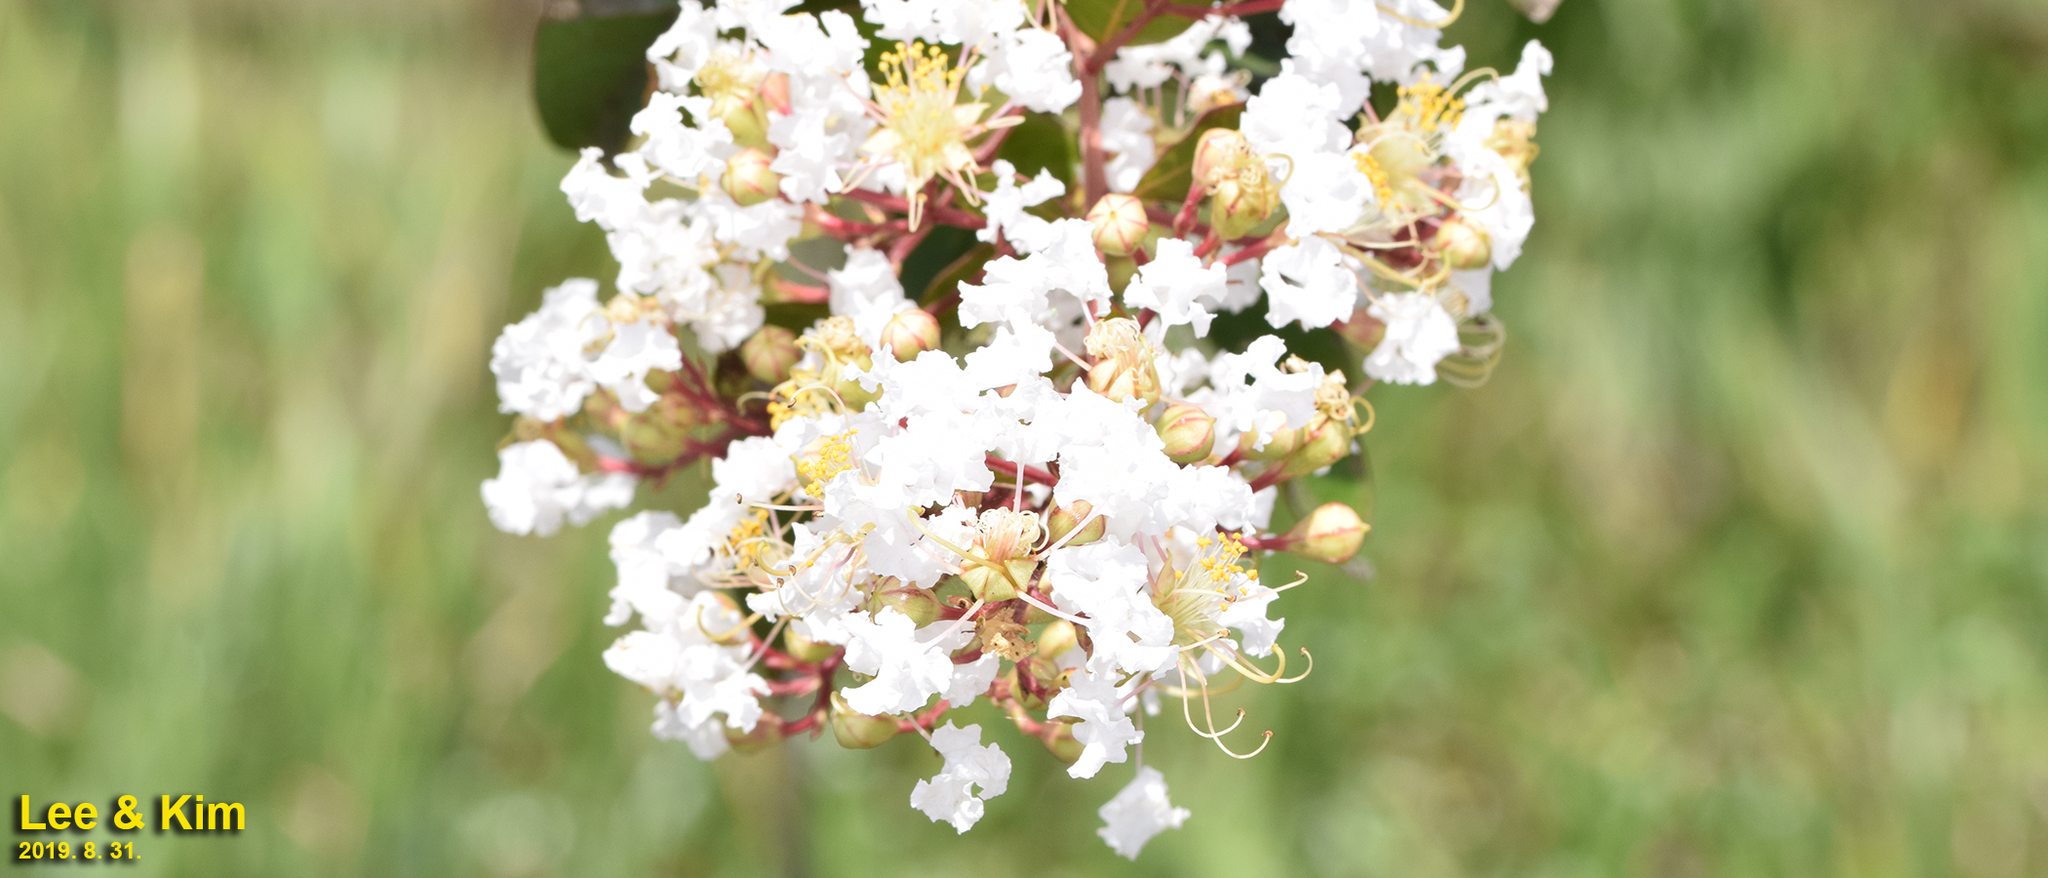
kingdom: Plantae
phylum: Tracheophyta
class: Magnoliopsida
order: Myrtales
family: Lythraceae
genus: Lagerstroemia
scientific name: Lagerstroemia indica
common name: Crape-myrtle
